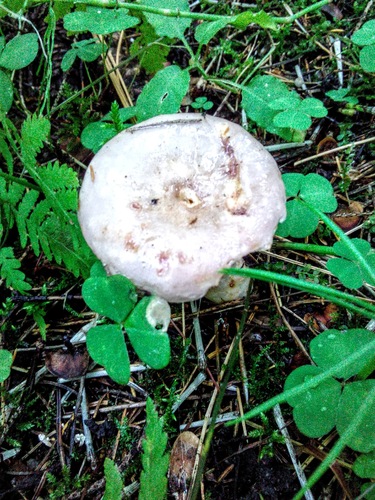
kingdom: Fungi
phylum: Basidiomycota
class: Agaricomycetes
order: Russulales
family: Russulaceae
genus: Lactarius
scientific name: Lactarius
